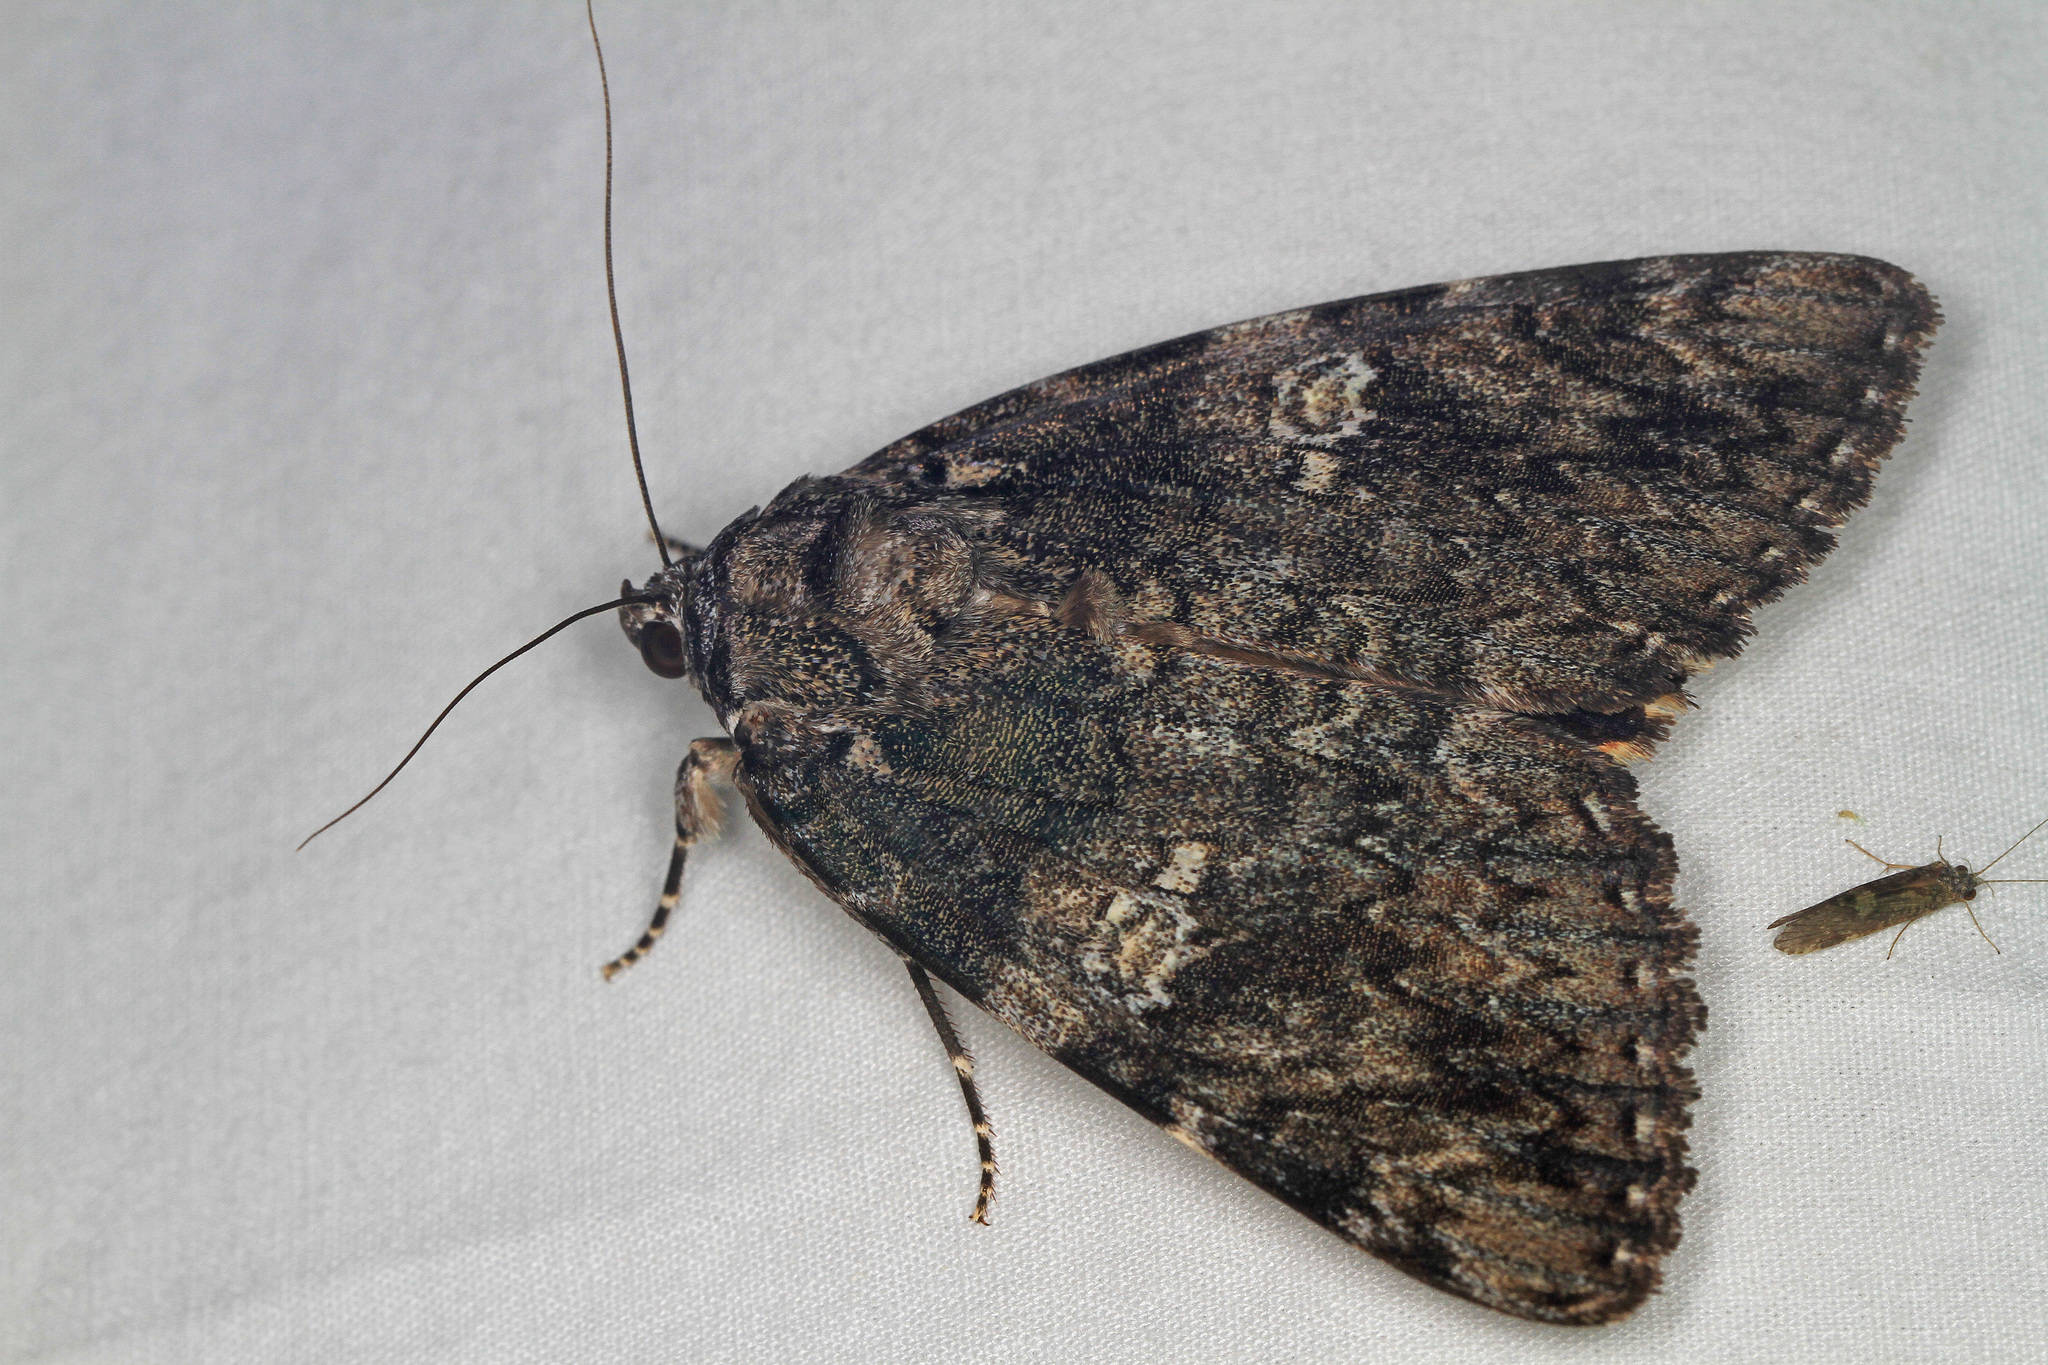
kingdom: Animalia
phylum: Arthropoda
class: Insecta
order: Lepidoptera
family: Erebidae
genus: Catocala
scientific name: Catocala ilia
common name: Ilia underwing
